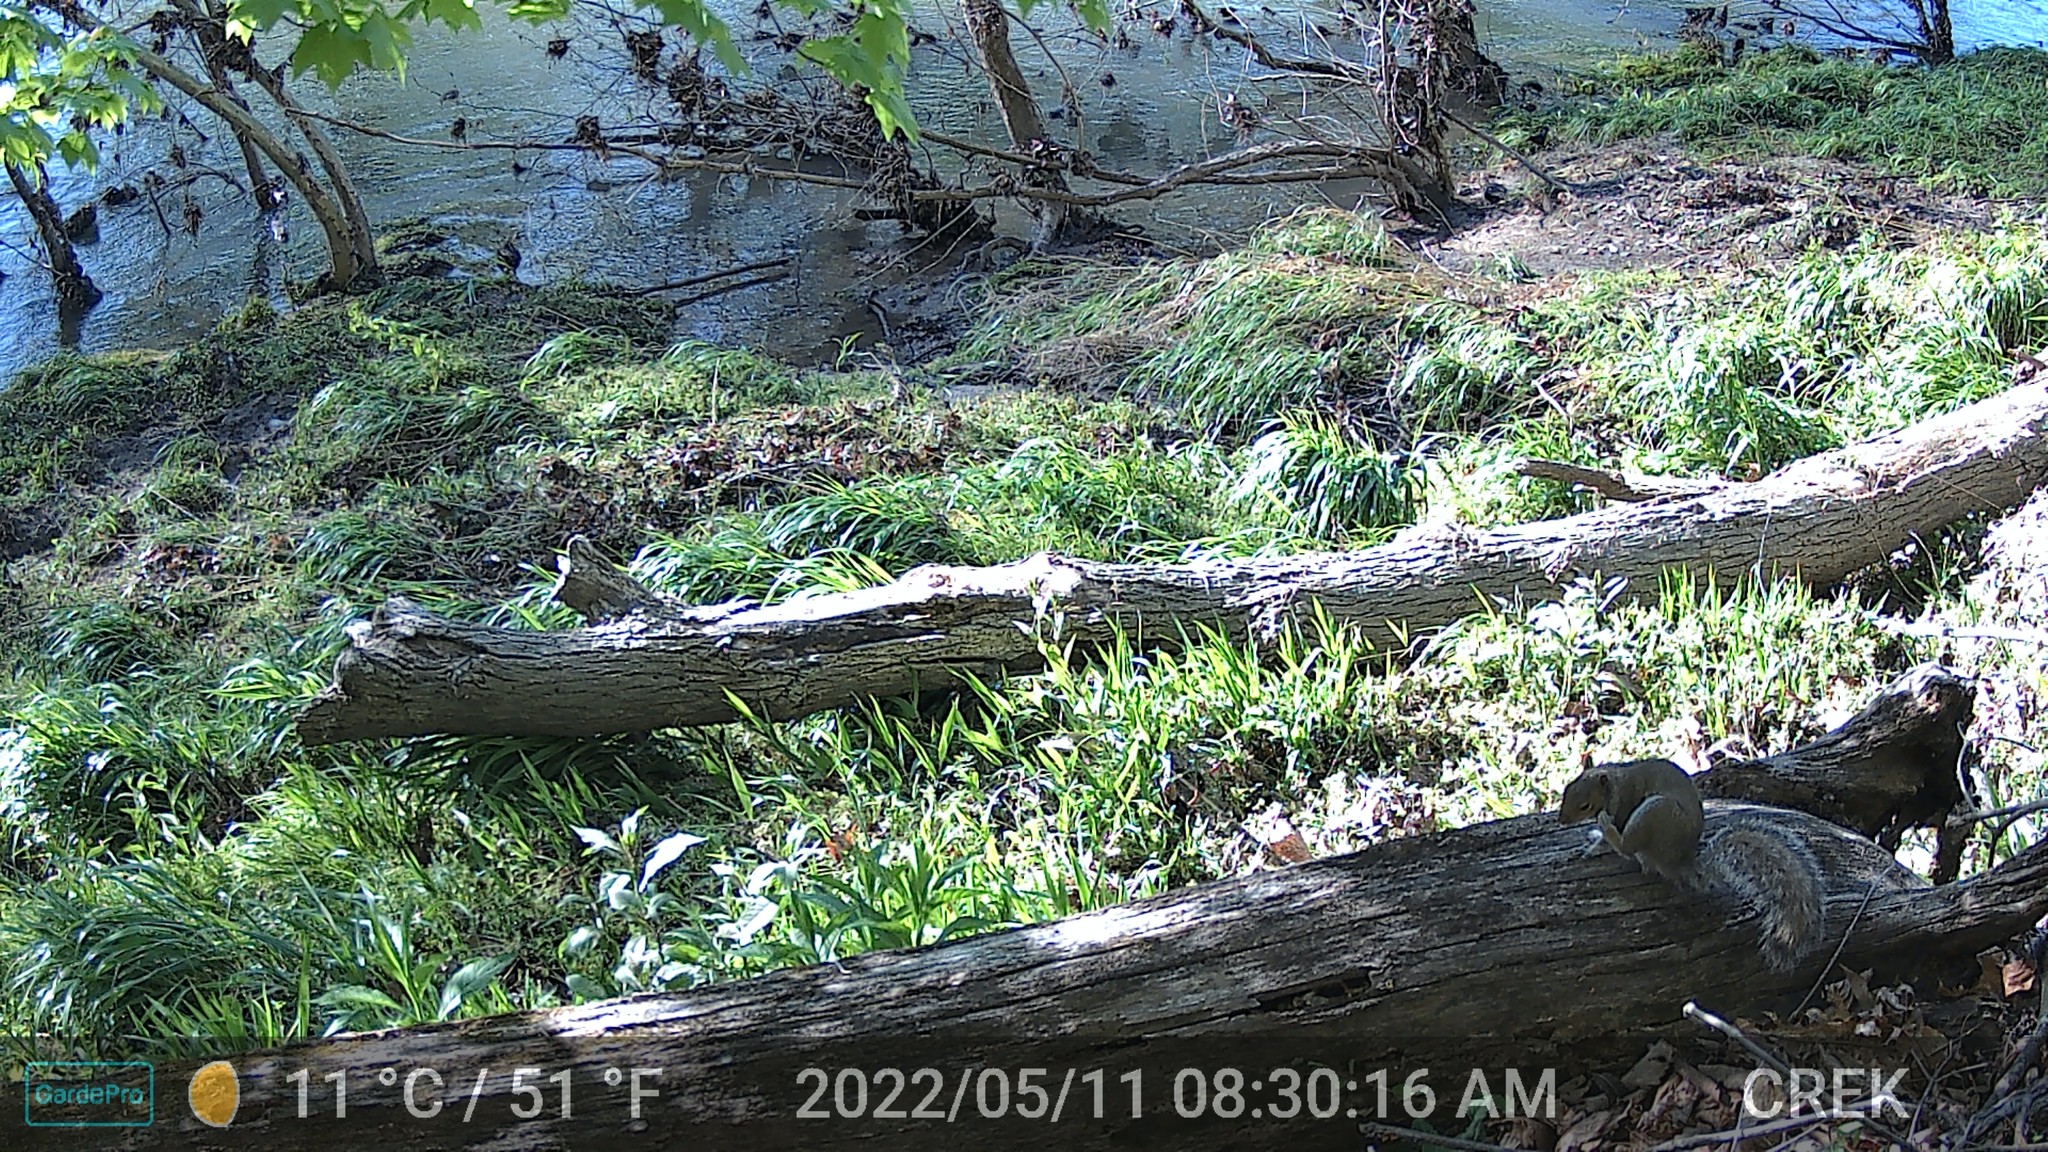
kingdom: Animalia
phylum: Chordata
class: Mammalia
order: Rodentia
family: Sciuridae
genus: Sciurus
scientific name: Sciurus carolinensis
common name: Eastern gray squirrel
